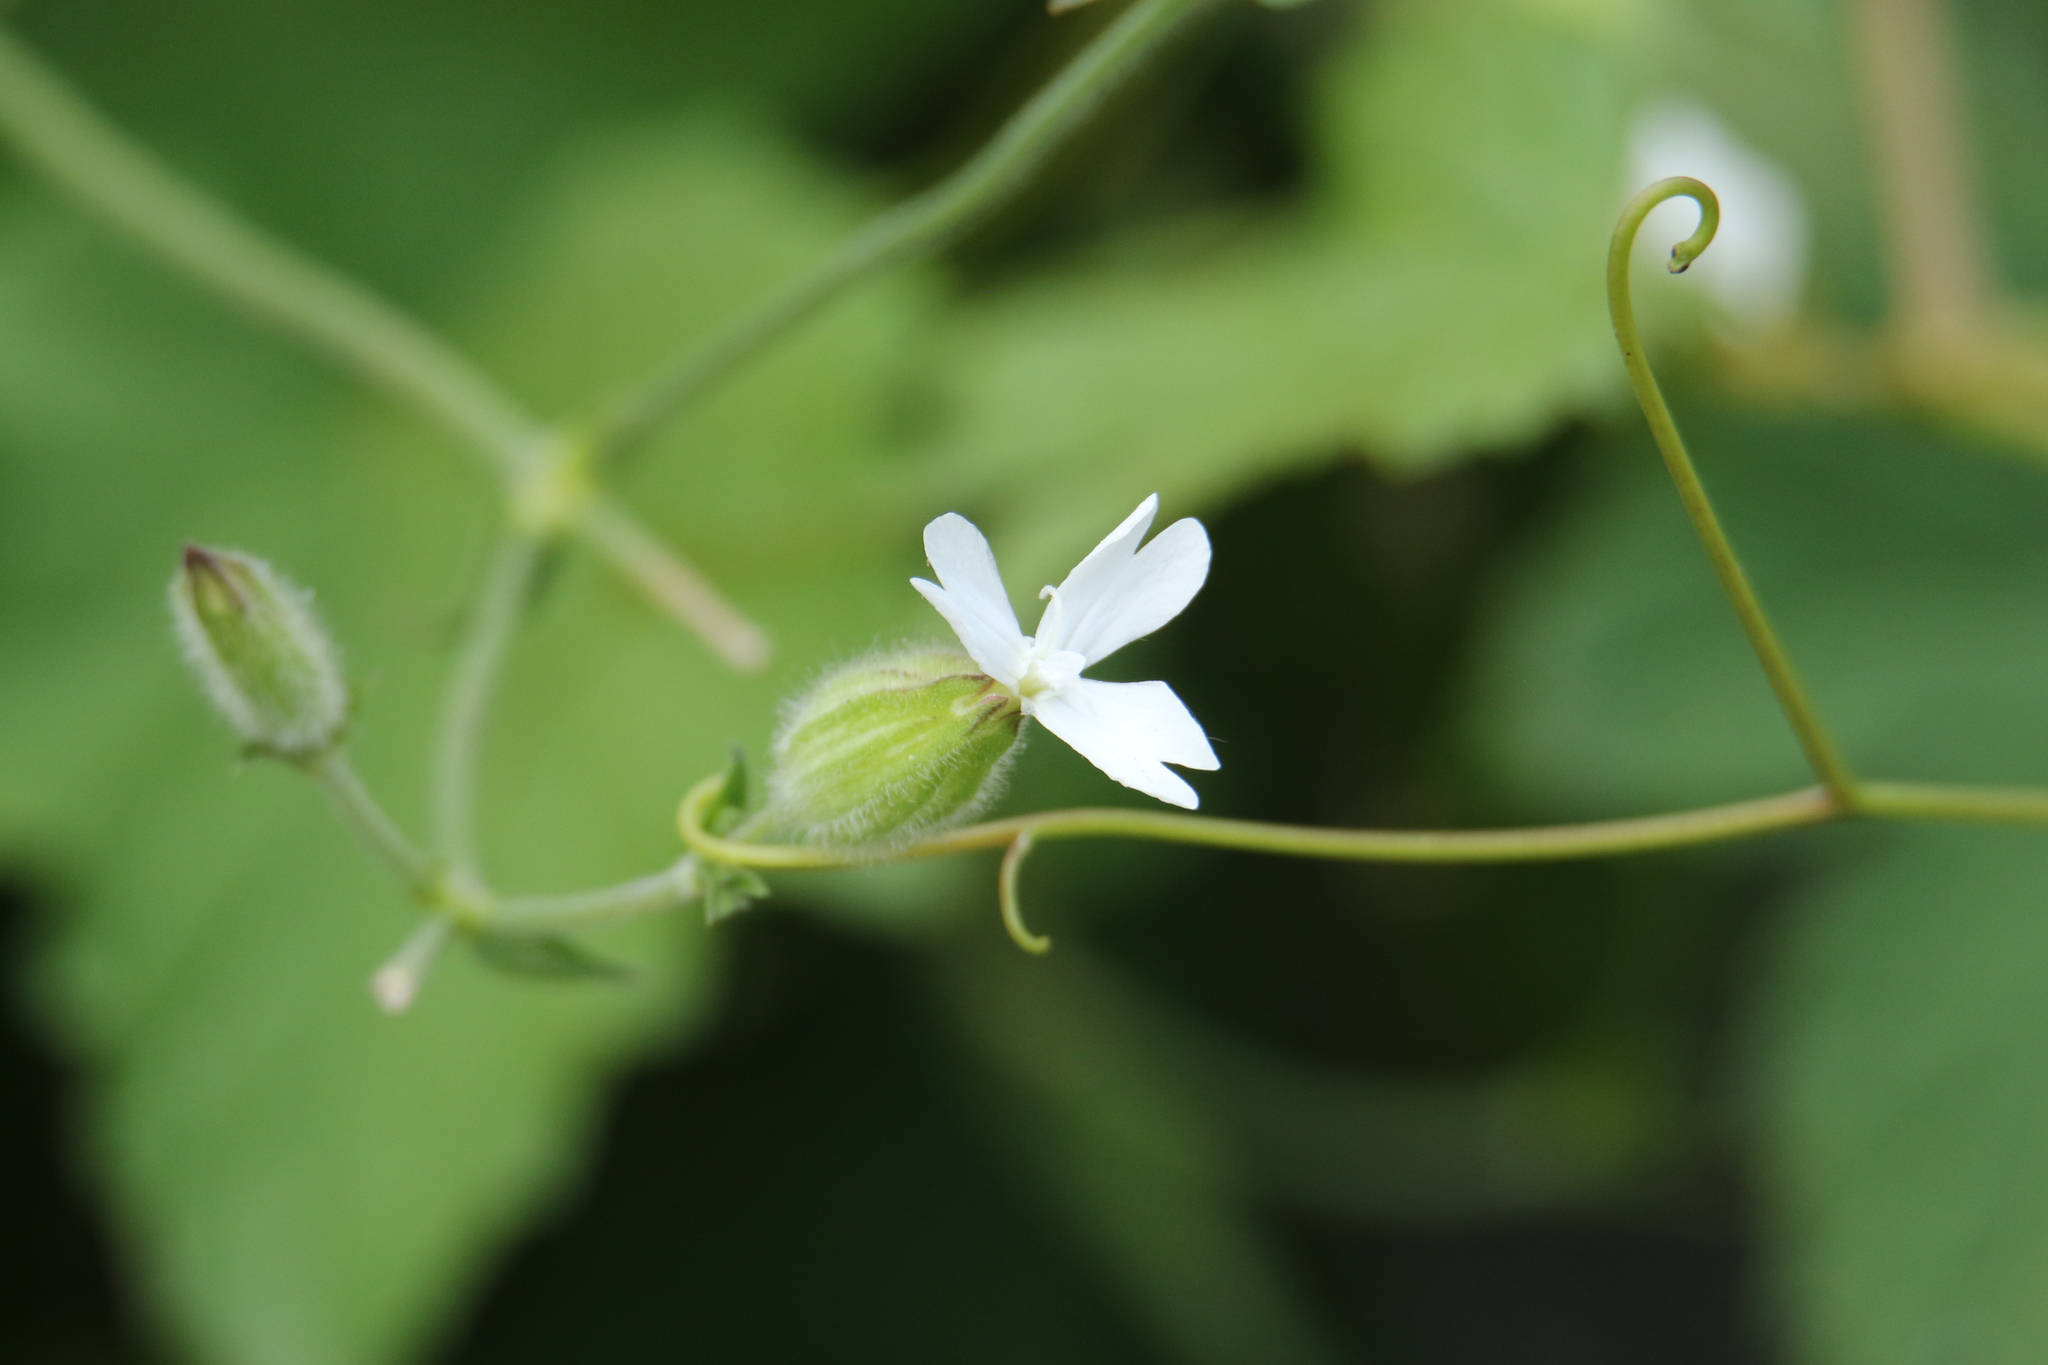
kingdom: Plantae
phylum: Tracheophyta
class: Magnoliopsida
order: Caryophyllales
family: Caryophyllaceae
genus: Silene
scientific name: Silene latifolia
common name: White campion
